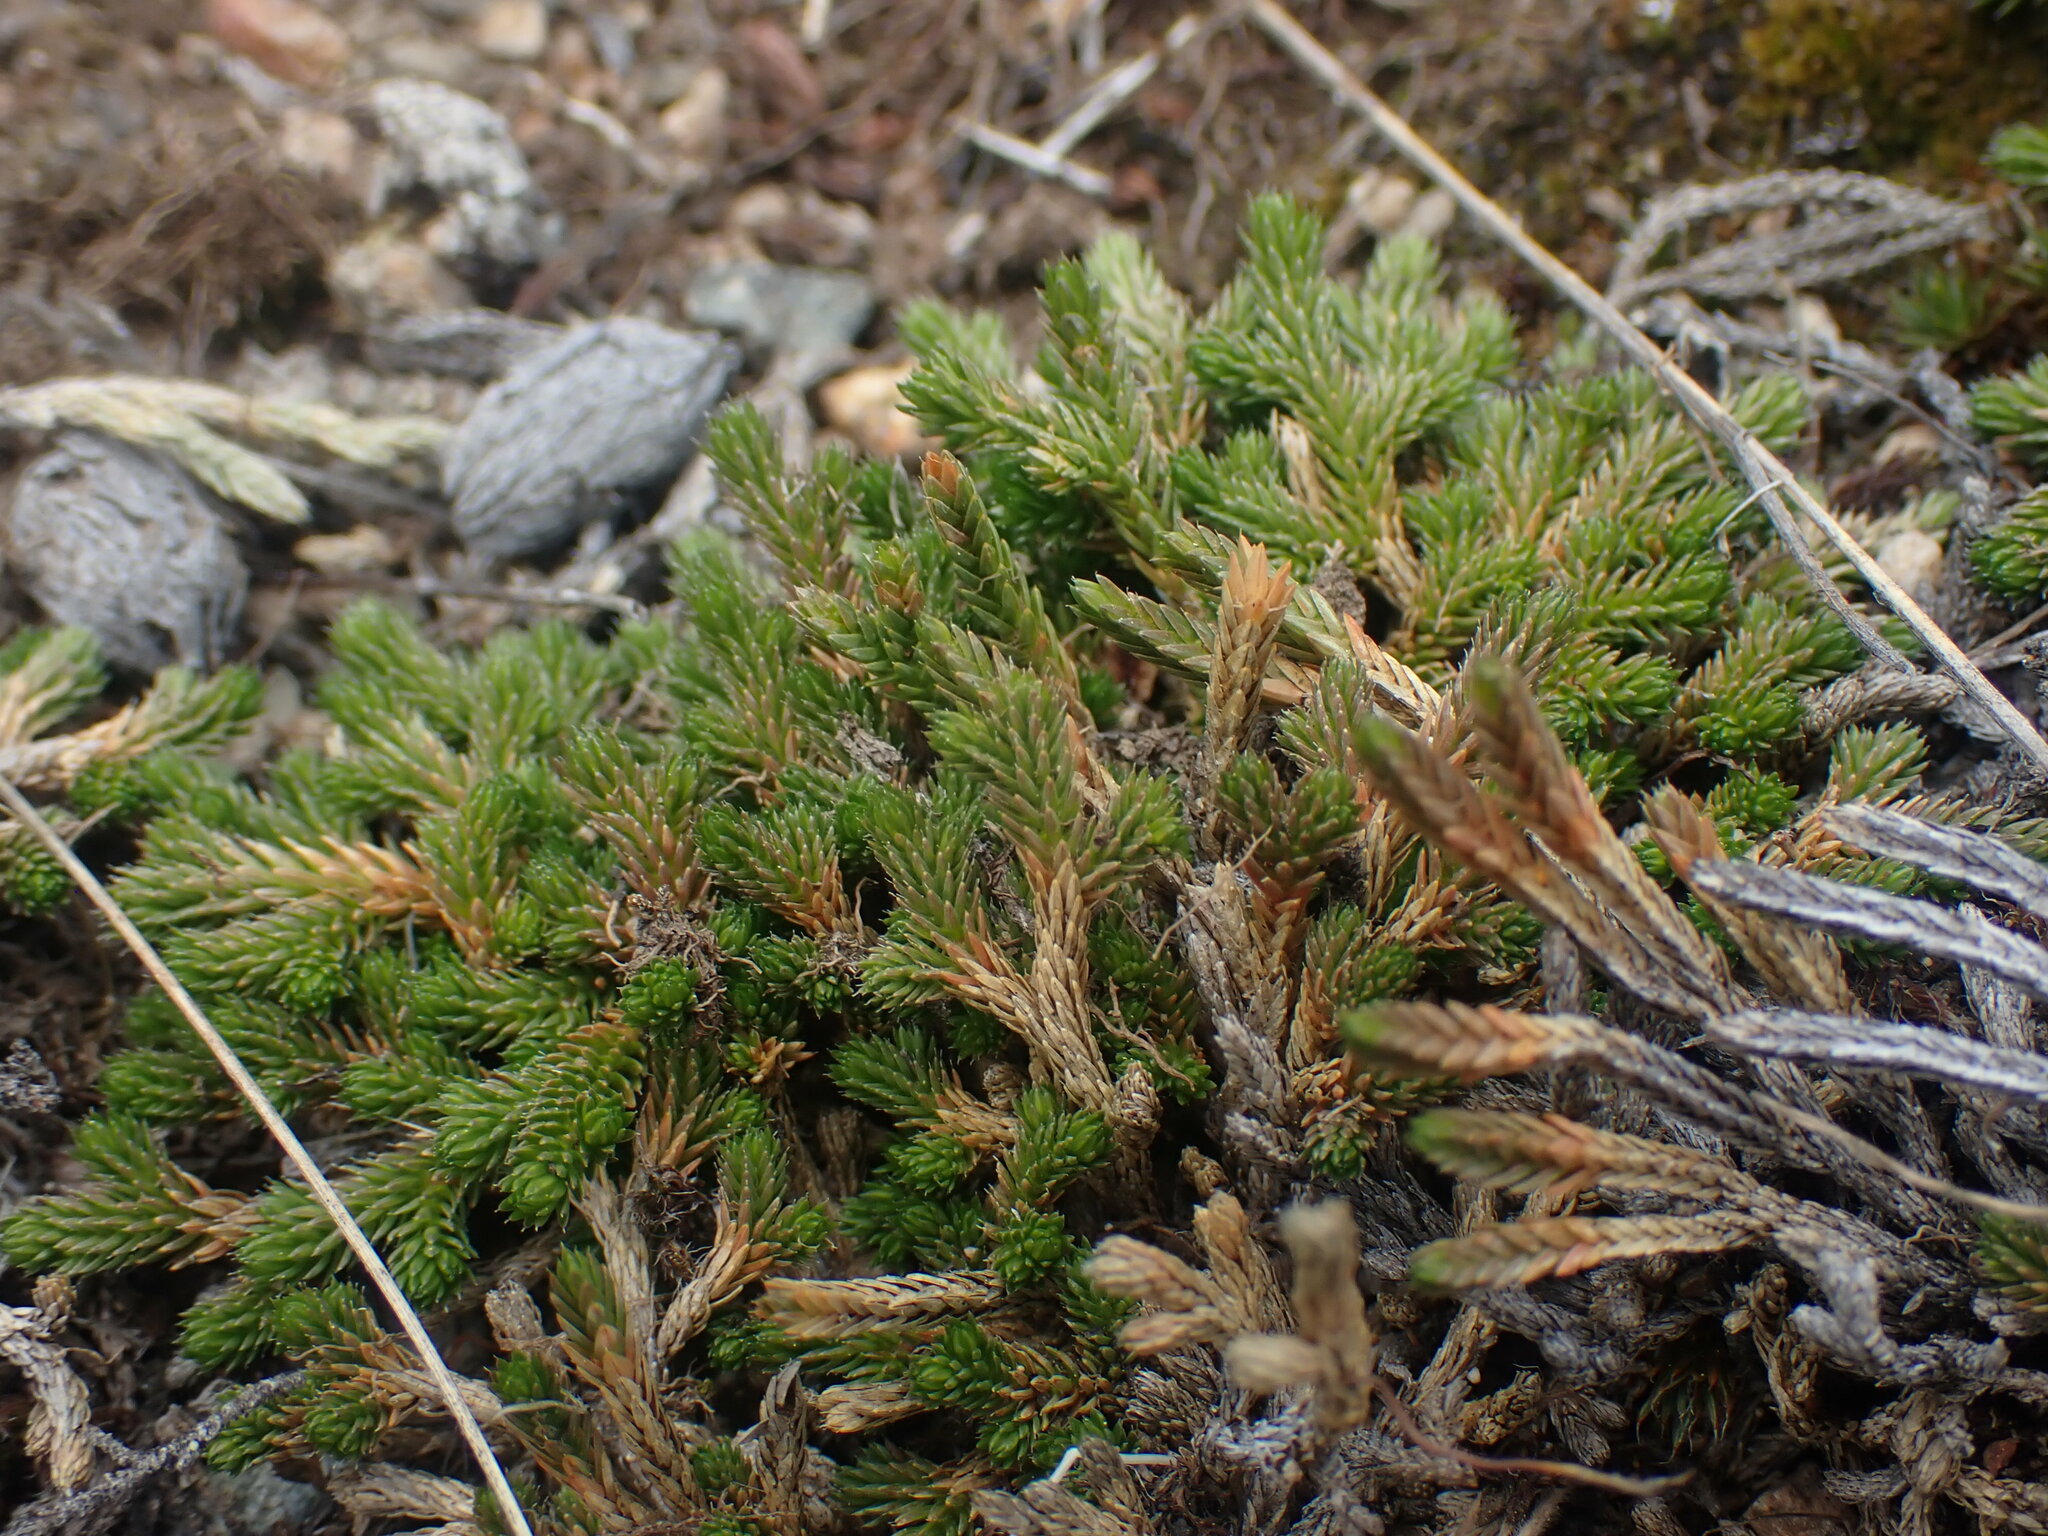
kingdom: Plantae
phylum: Tracheophyta
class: Lycopodiopsida
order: Selaginellales
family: Selaginellaceae
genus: Selaginella
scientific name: Selaginella wallacei
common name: Wallace's selaginella
